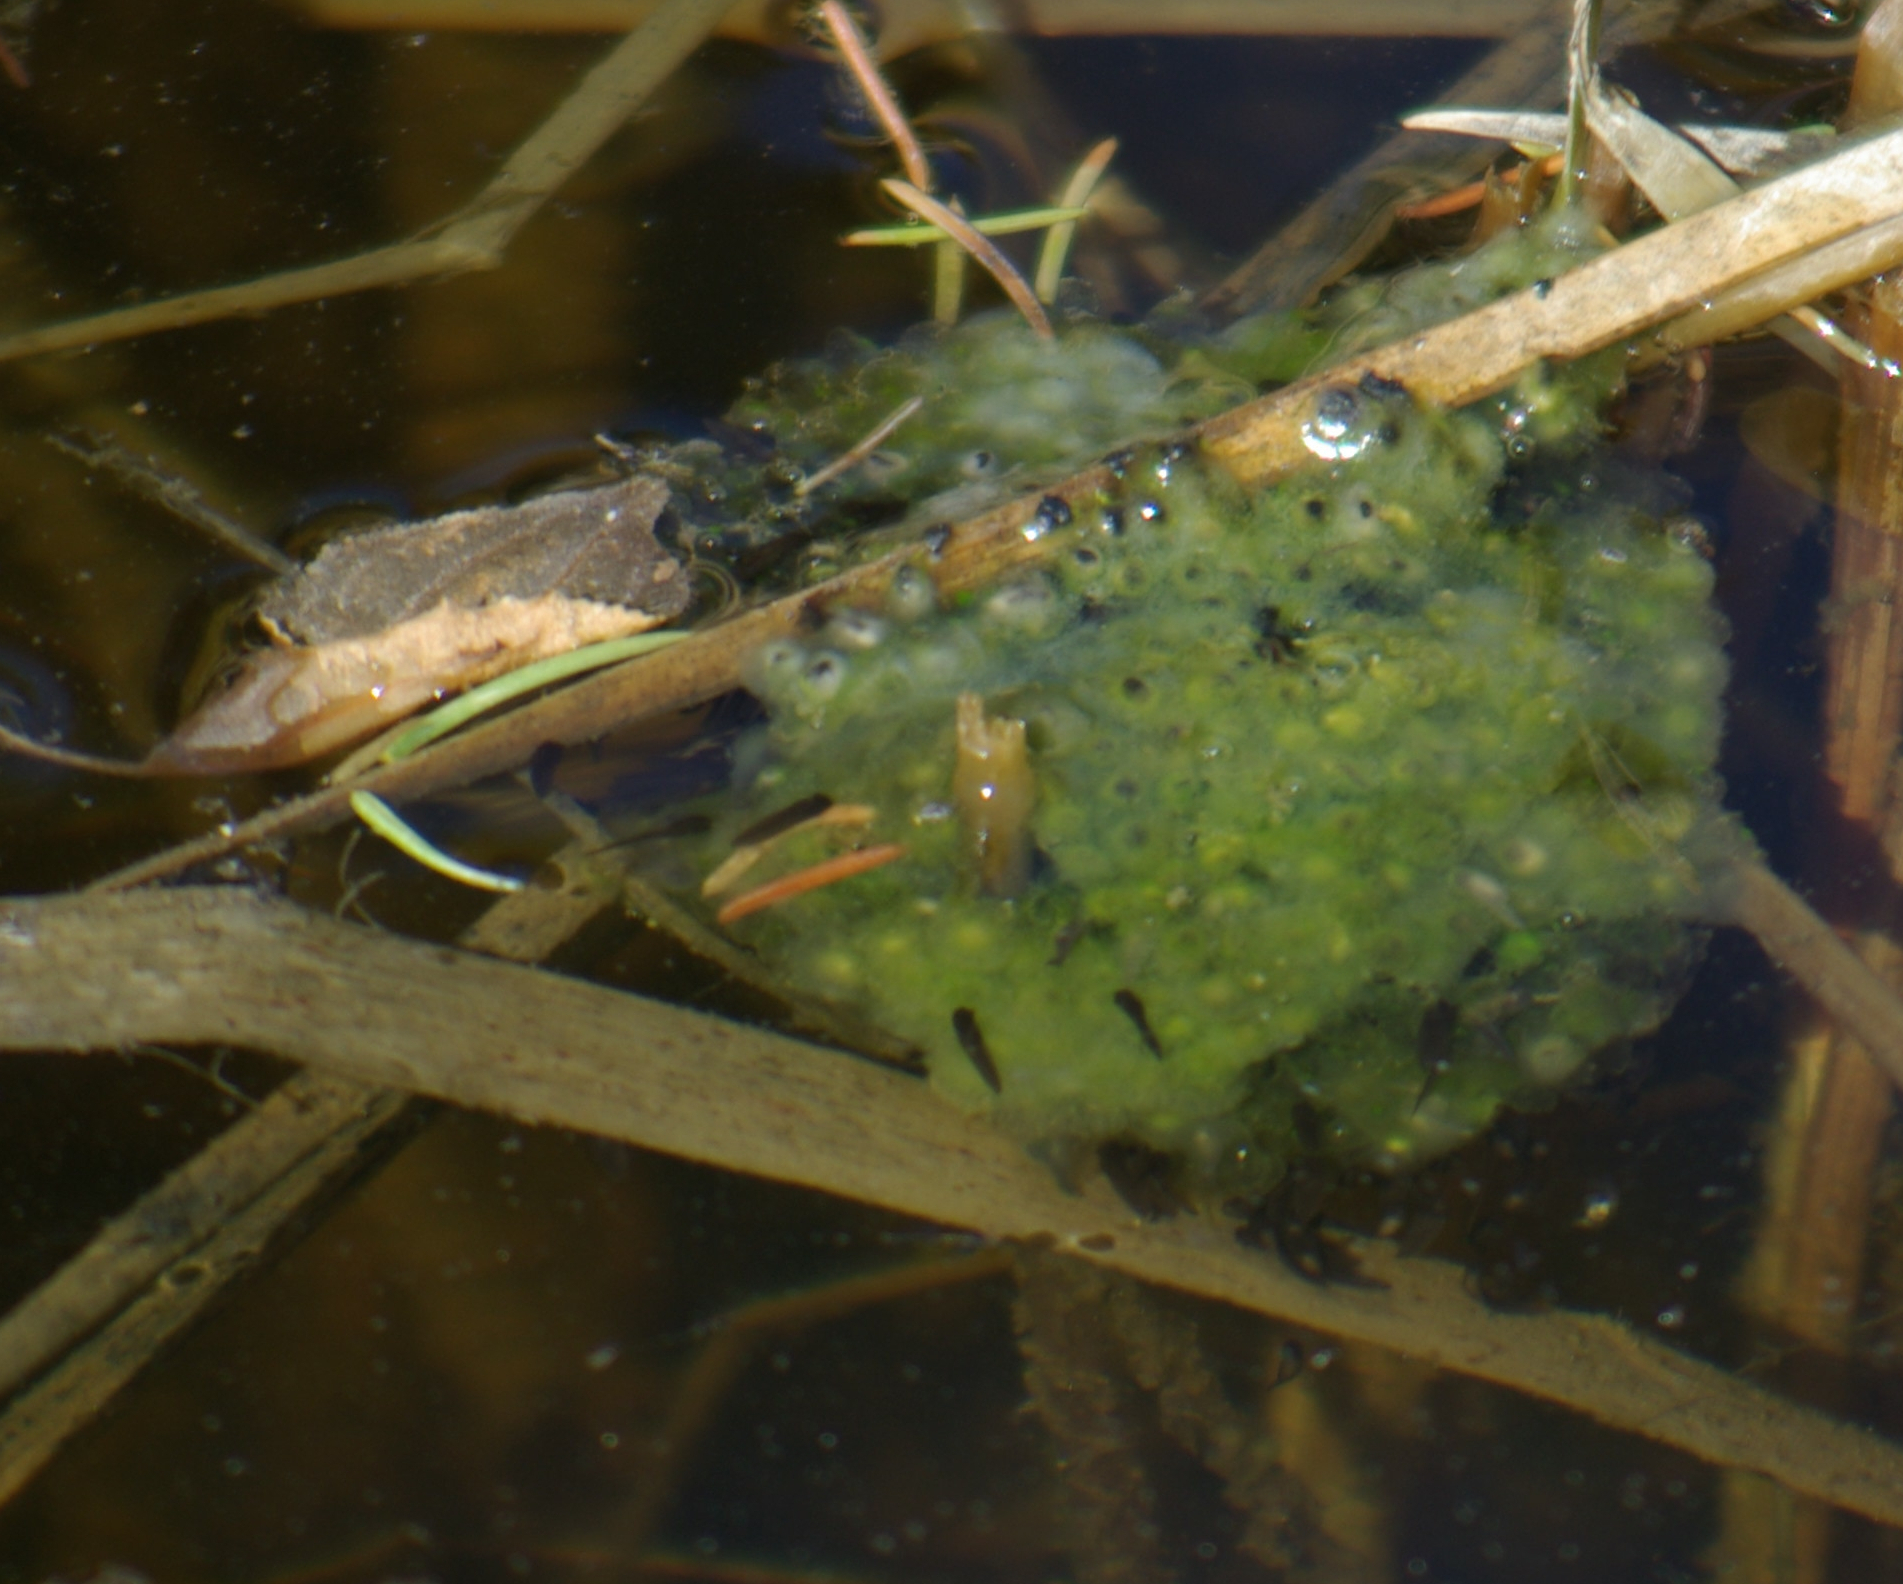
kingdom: Animalia
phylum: Chordata
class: Amphibia
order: Anura
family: Ranidae
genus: Lithobates
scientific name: Lithobates sylvaticus
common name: Wood frog
